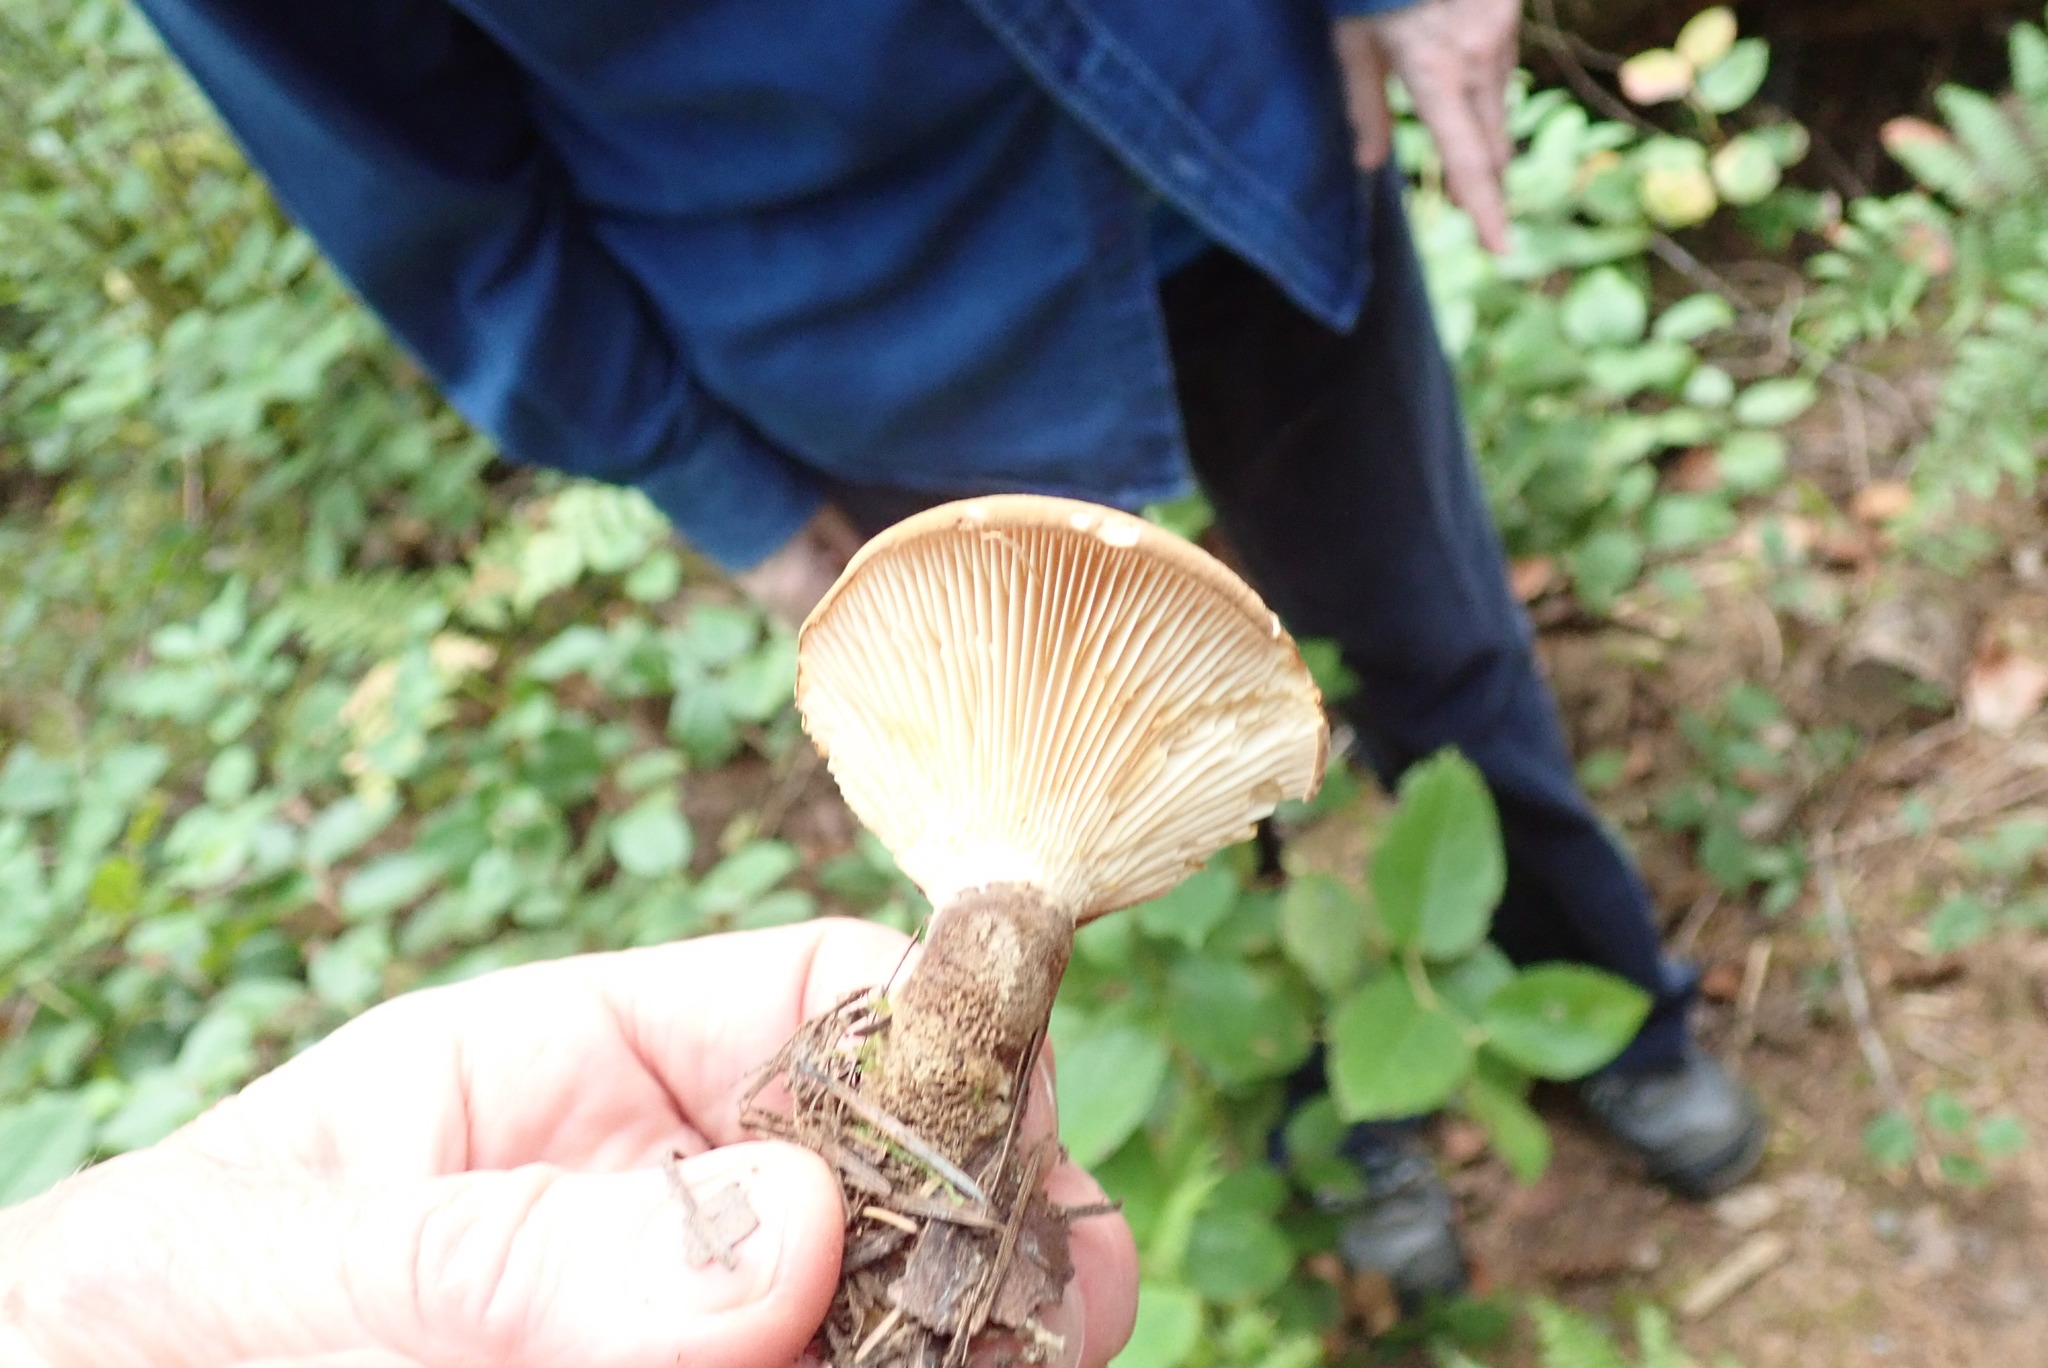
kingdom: Fungi
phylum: Basidiomycota
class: Agaricomycetes
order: Boletales
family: Tapinellaceae
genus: Tapinella
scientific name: Tapinella atrotomentosa
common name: Velvet rollrim
